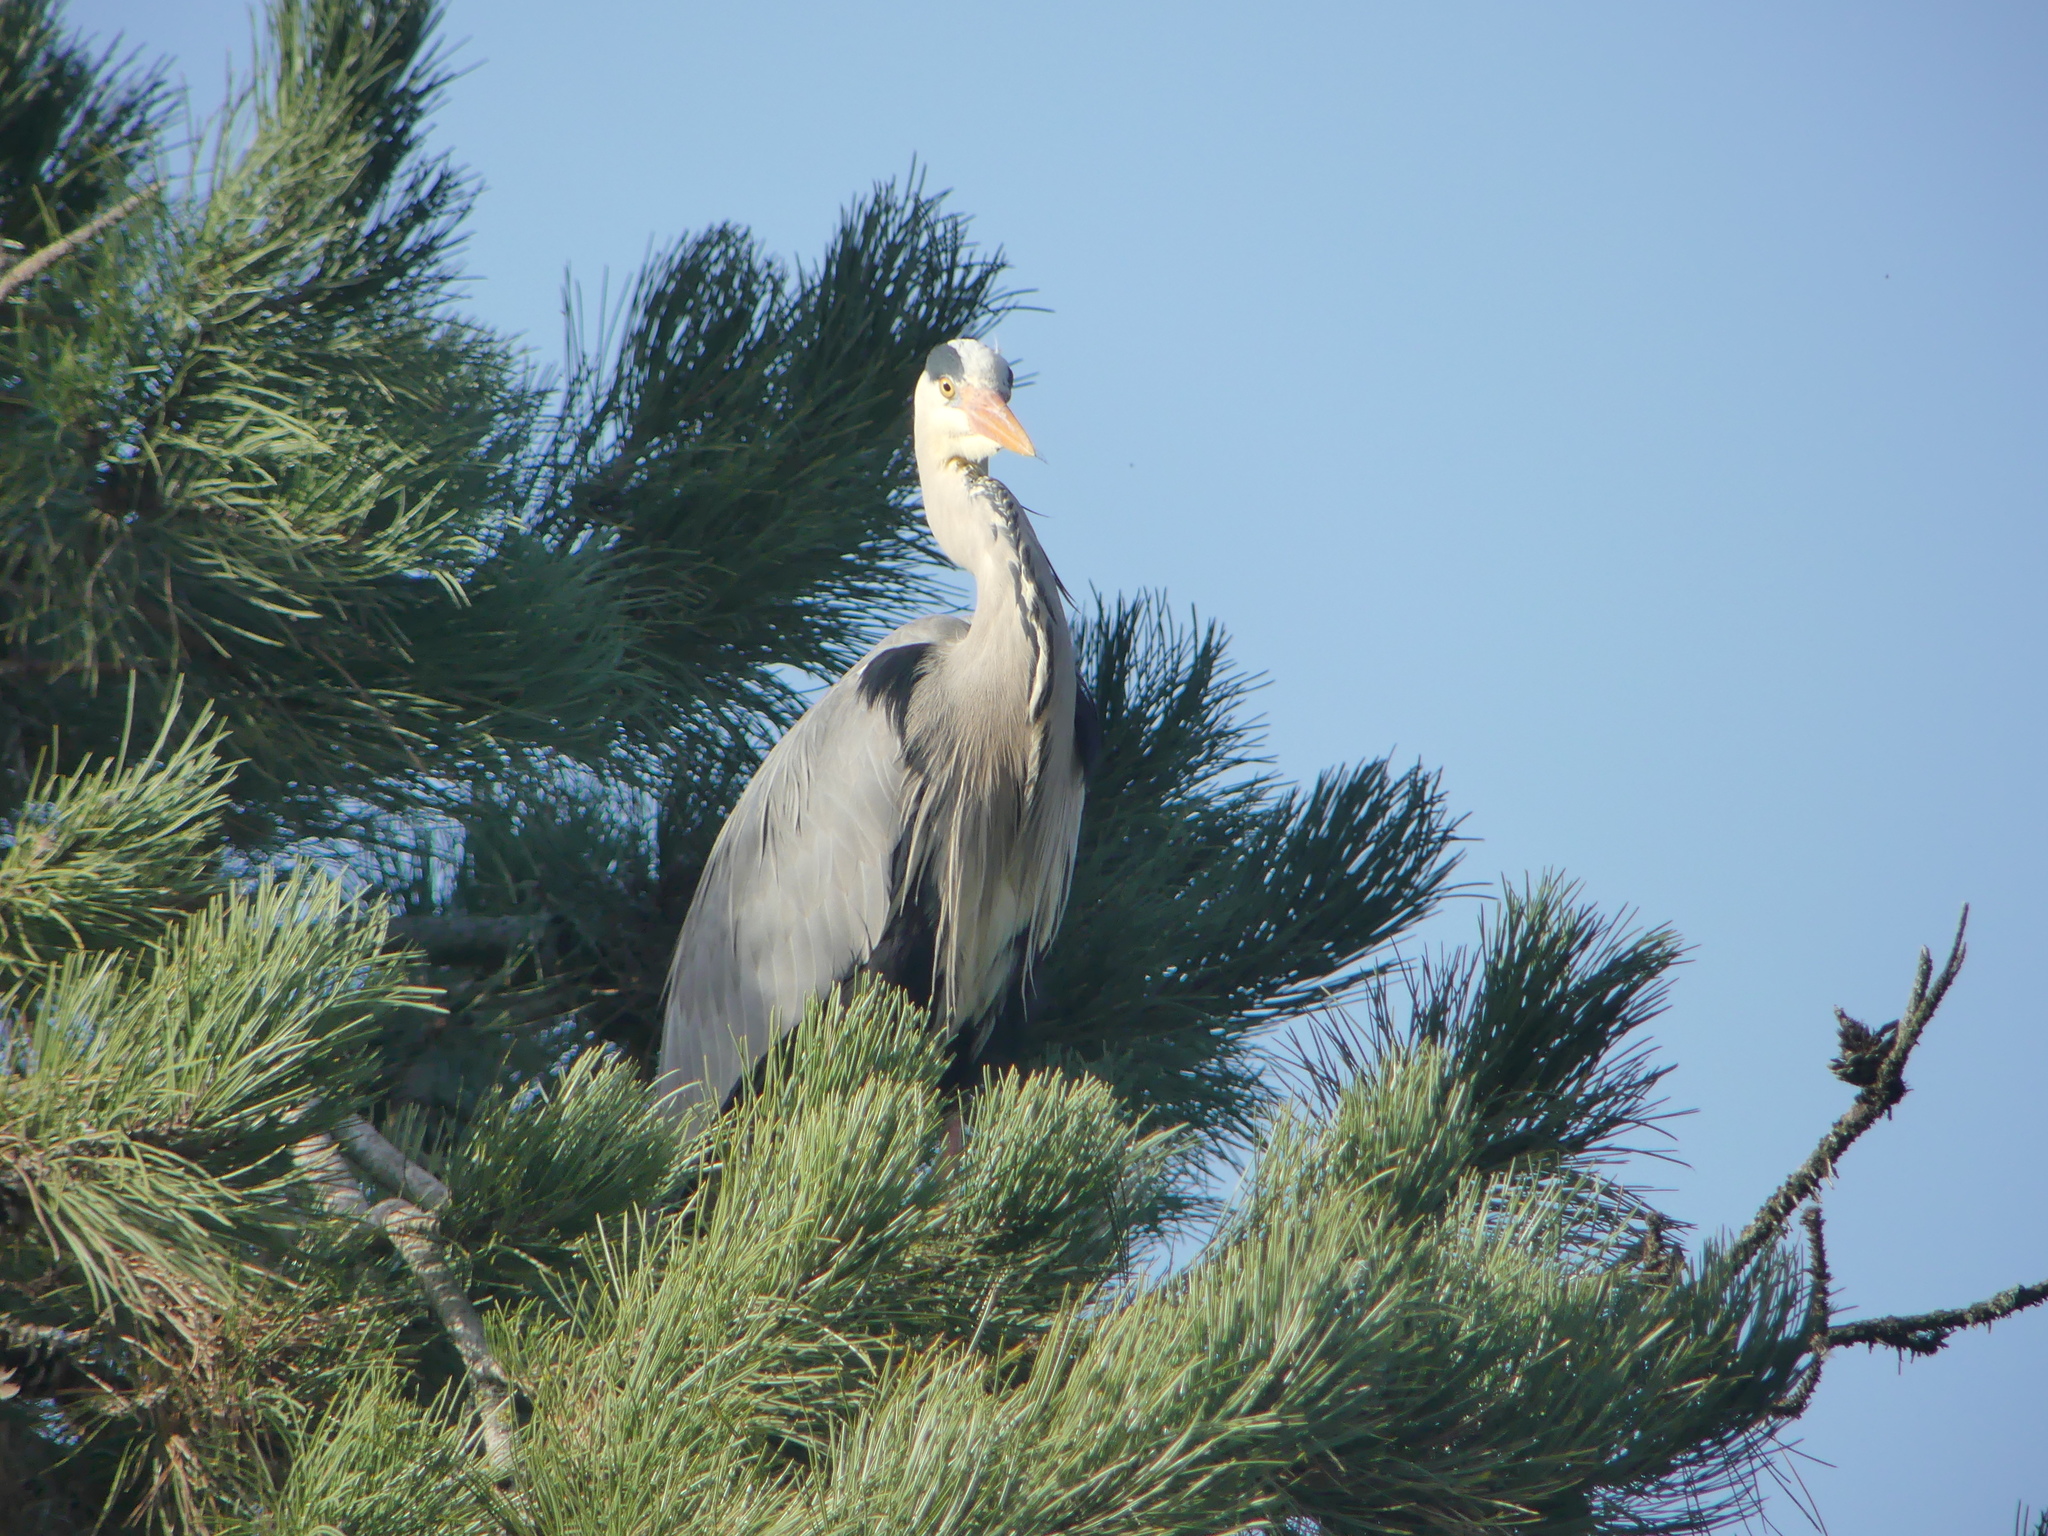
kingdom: Animalia
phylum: Chordata
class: Aves
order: Pelecaniformes
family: Ardeidae
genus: Ardea
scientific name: Ardea cinerea
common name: Grey heron
